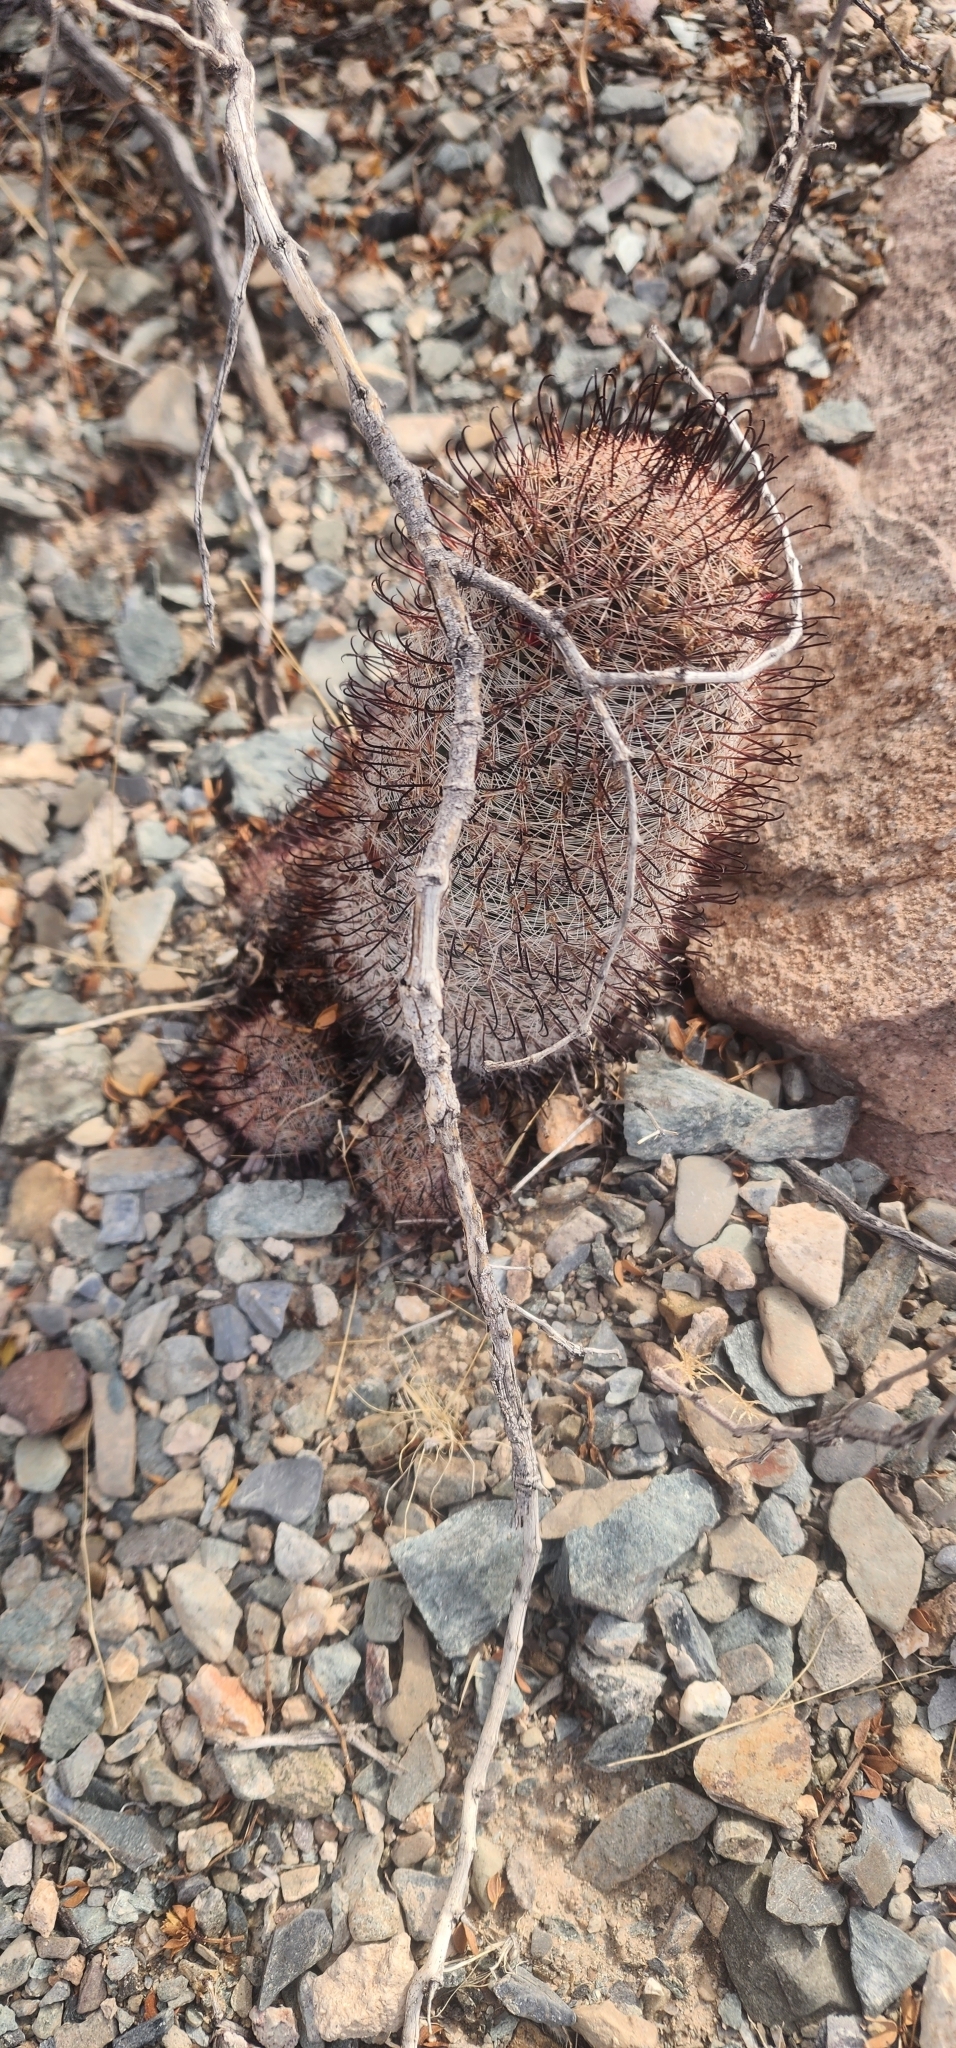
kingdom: Plantae
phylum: Tracheophyta
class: Magnoliopsida
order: Caryophyllales
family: Cactaceae
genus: Cochemiea
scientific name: Cochemiea grahamii
